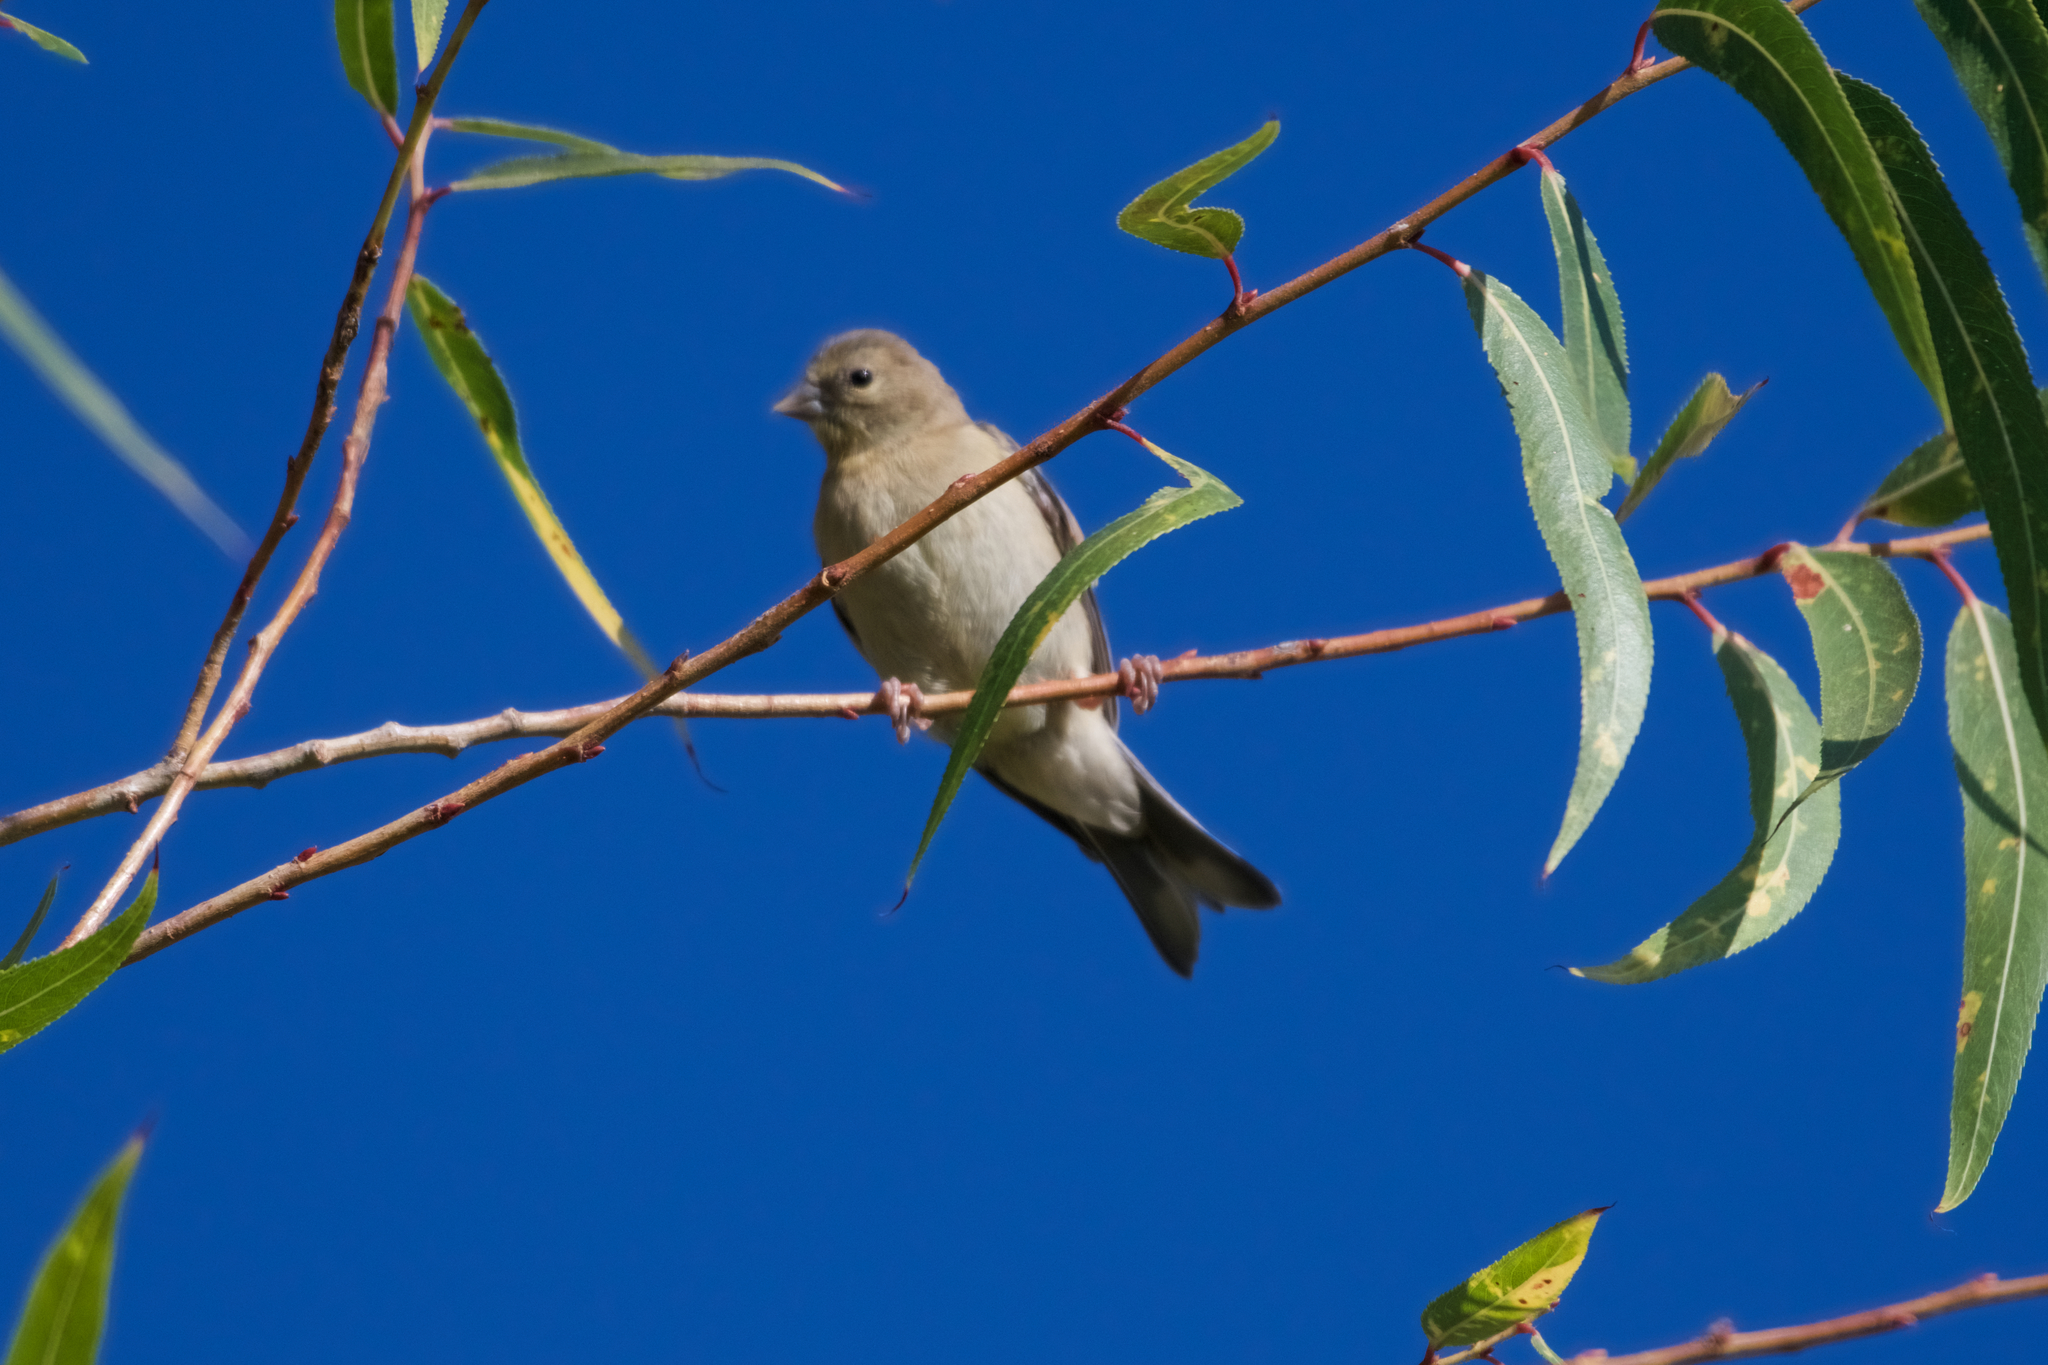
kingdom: Animalia
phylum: Chordata
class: Aves
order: Passeriformes
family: Fringillidae
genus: Spinus
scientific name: Spinus tristis
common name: American goldfinch
